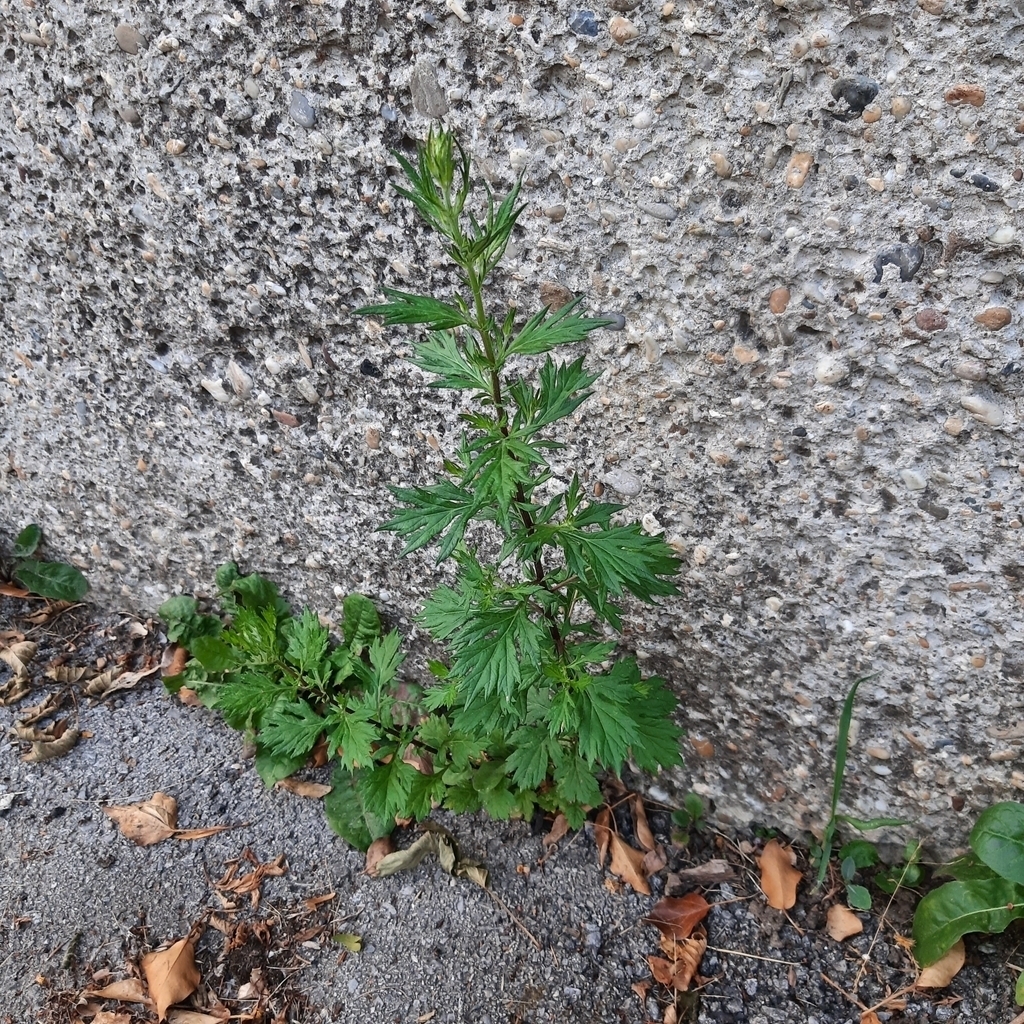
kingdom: Plantae
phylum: Tracheophyta
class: Magnoliopsida
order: Asterales
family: Asteraceae
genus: Artemisia
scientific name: Artemisia vulgaris
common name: Mugwort
